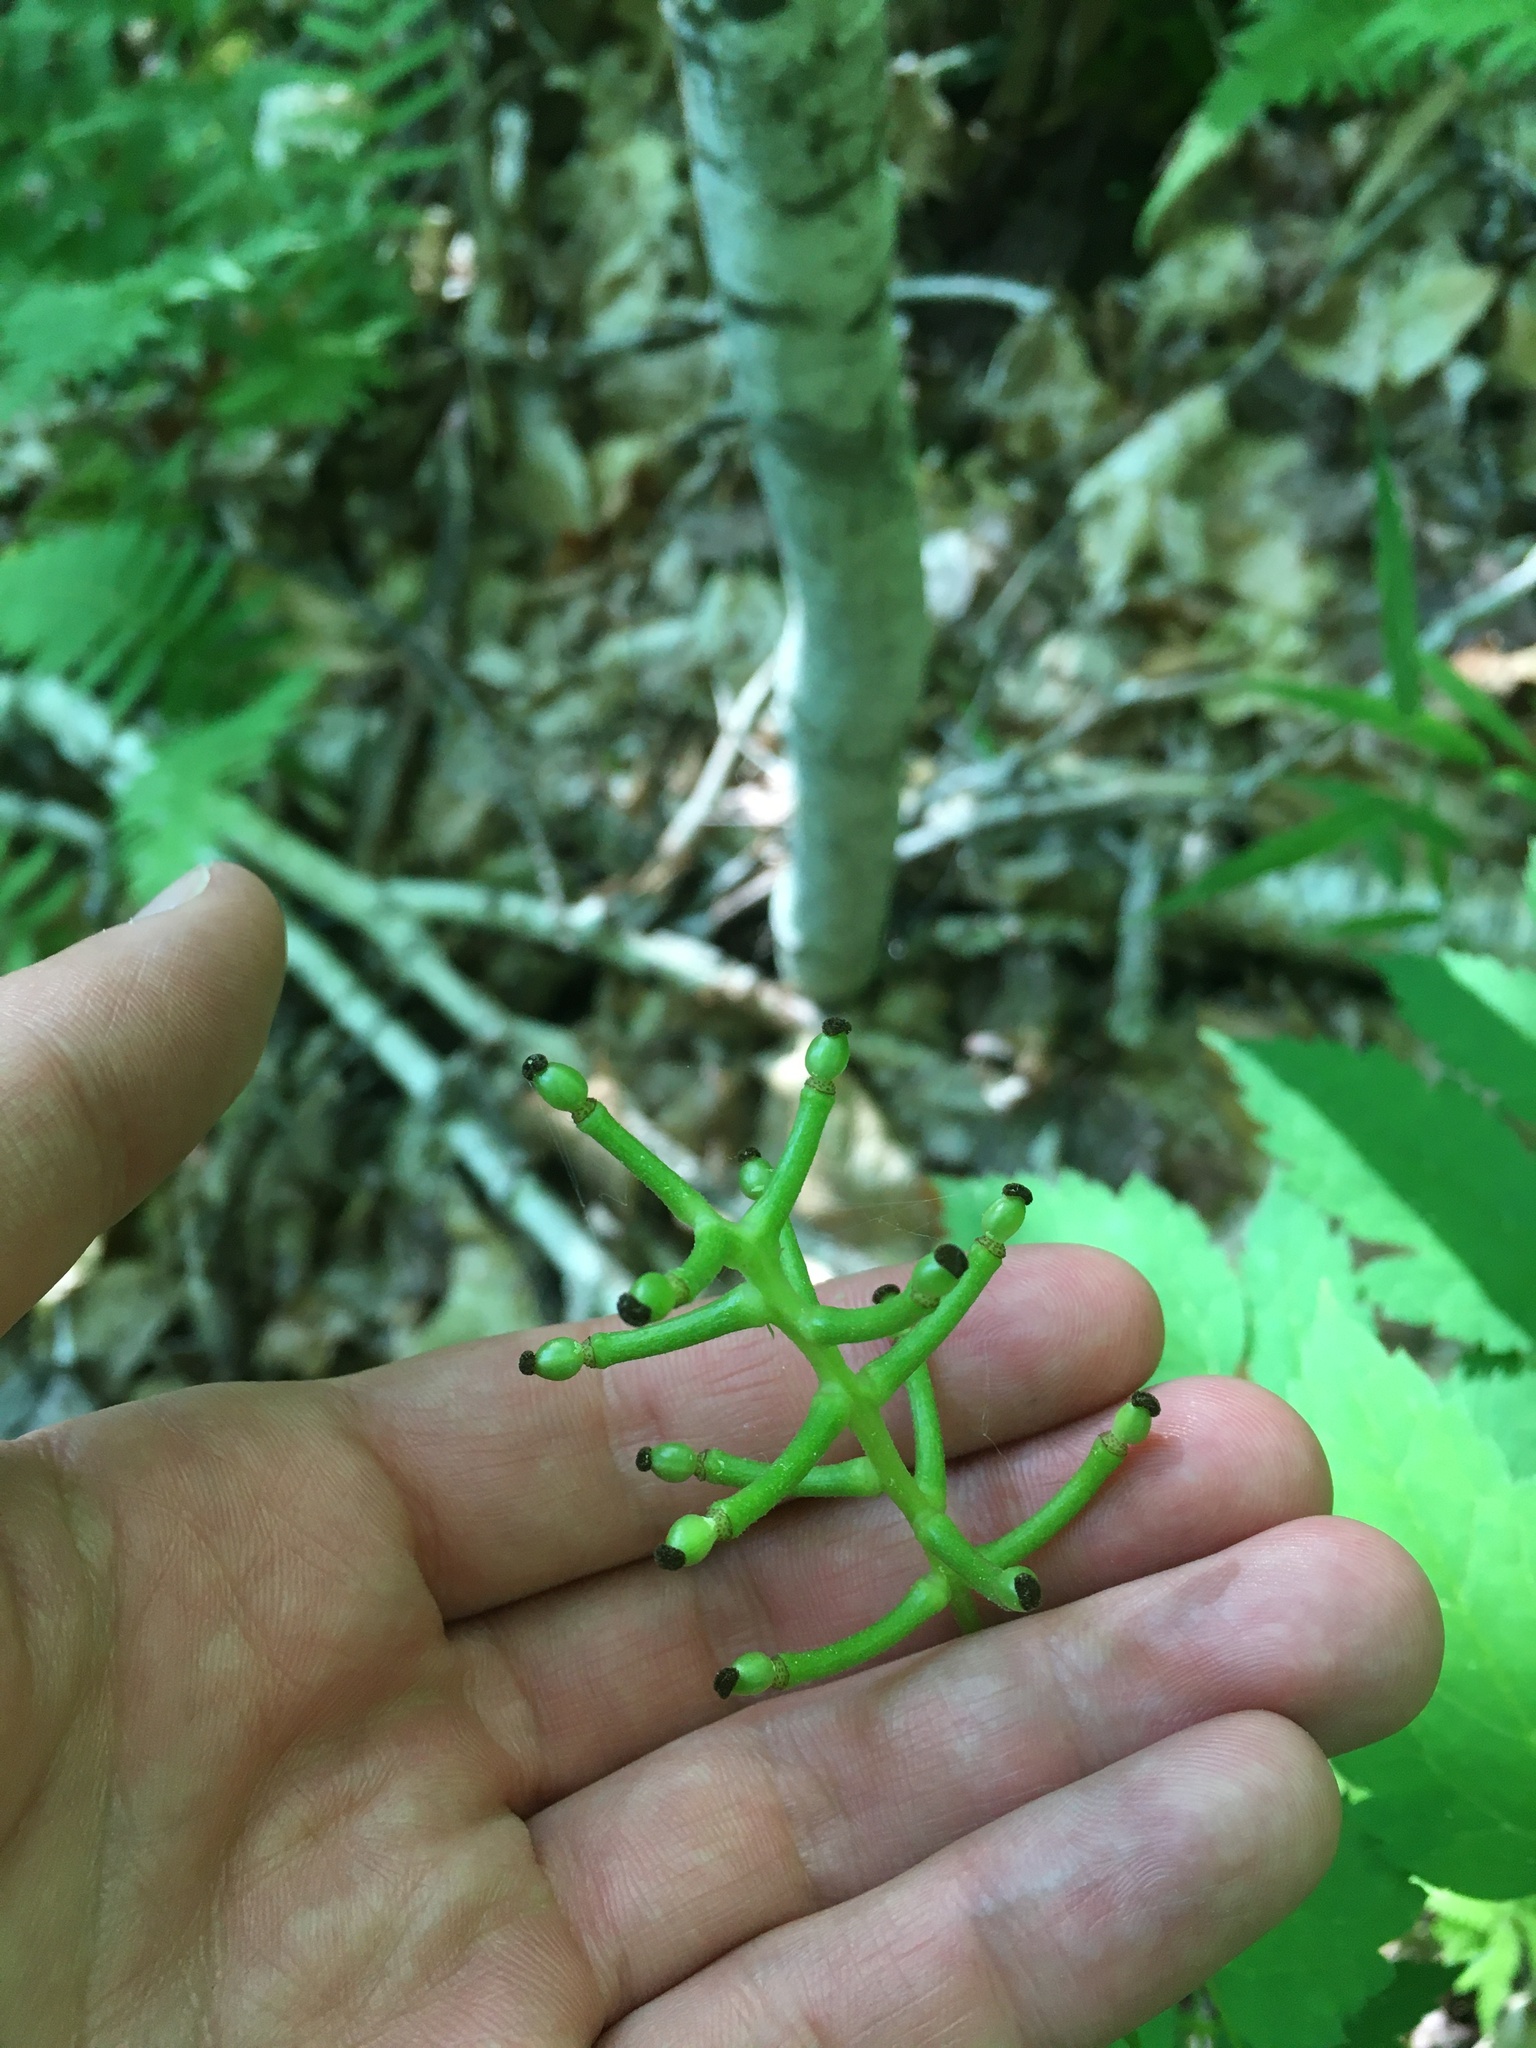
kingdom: Plantae
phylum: Tracheophyta
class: Magnoliopsida
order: Ranunculales
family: Ranunculaceae
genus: Actaea
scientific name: Actaea pachypoda
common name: Doll's-eyes
